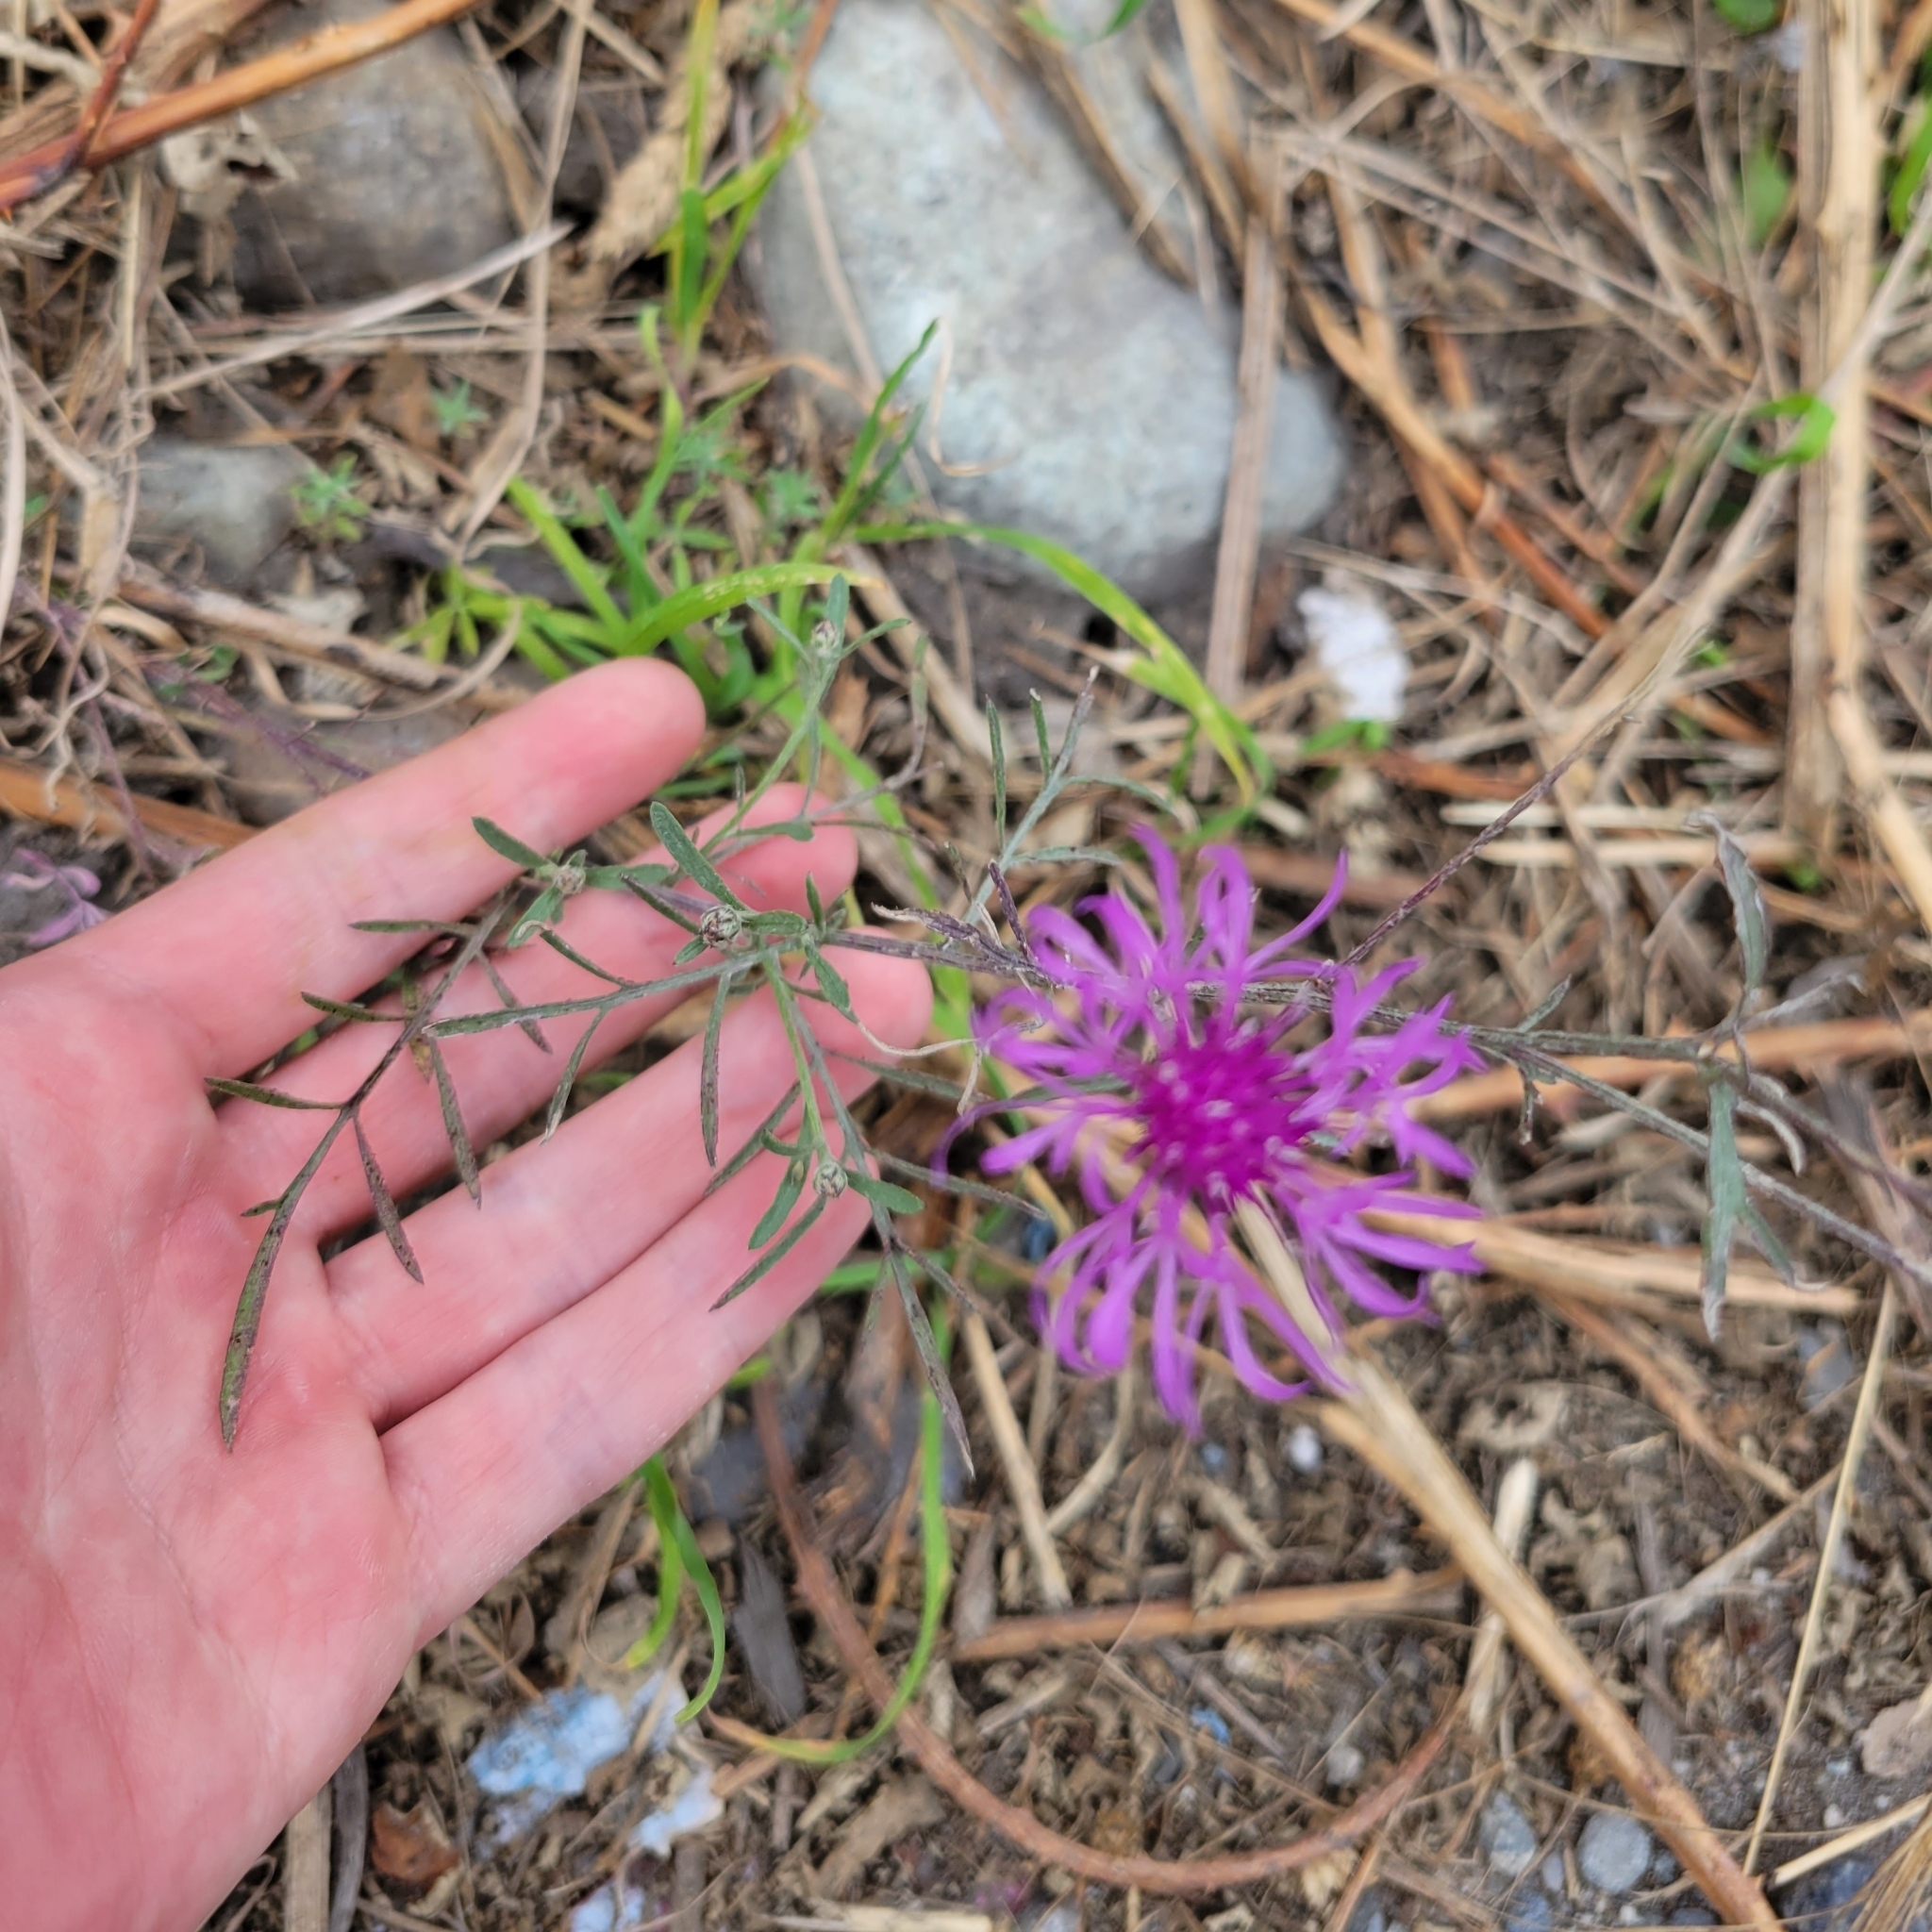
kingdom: Plantae
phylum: Tracheophyta
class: Magnoliopsida
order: Asterales
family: Asteraceae
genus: Centaurea
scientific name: Centaurea stoebe
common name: Spotted knapweed
